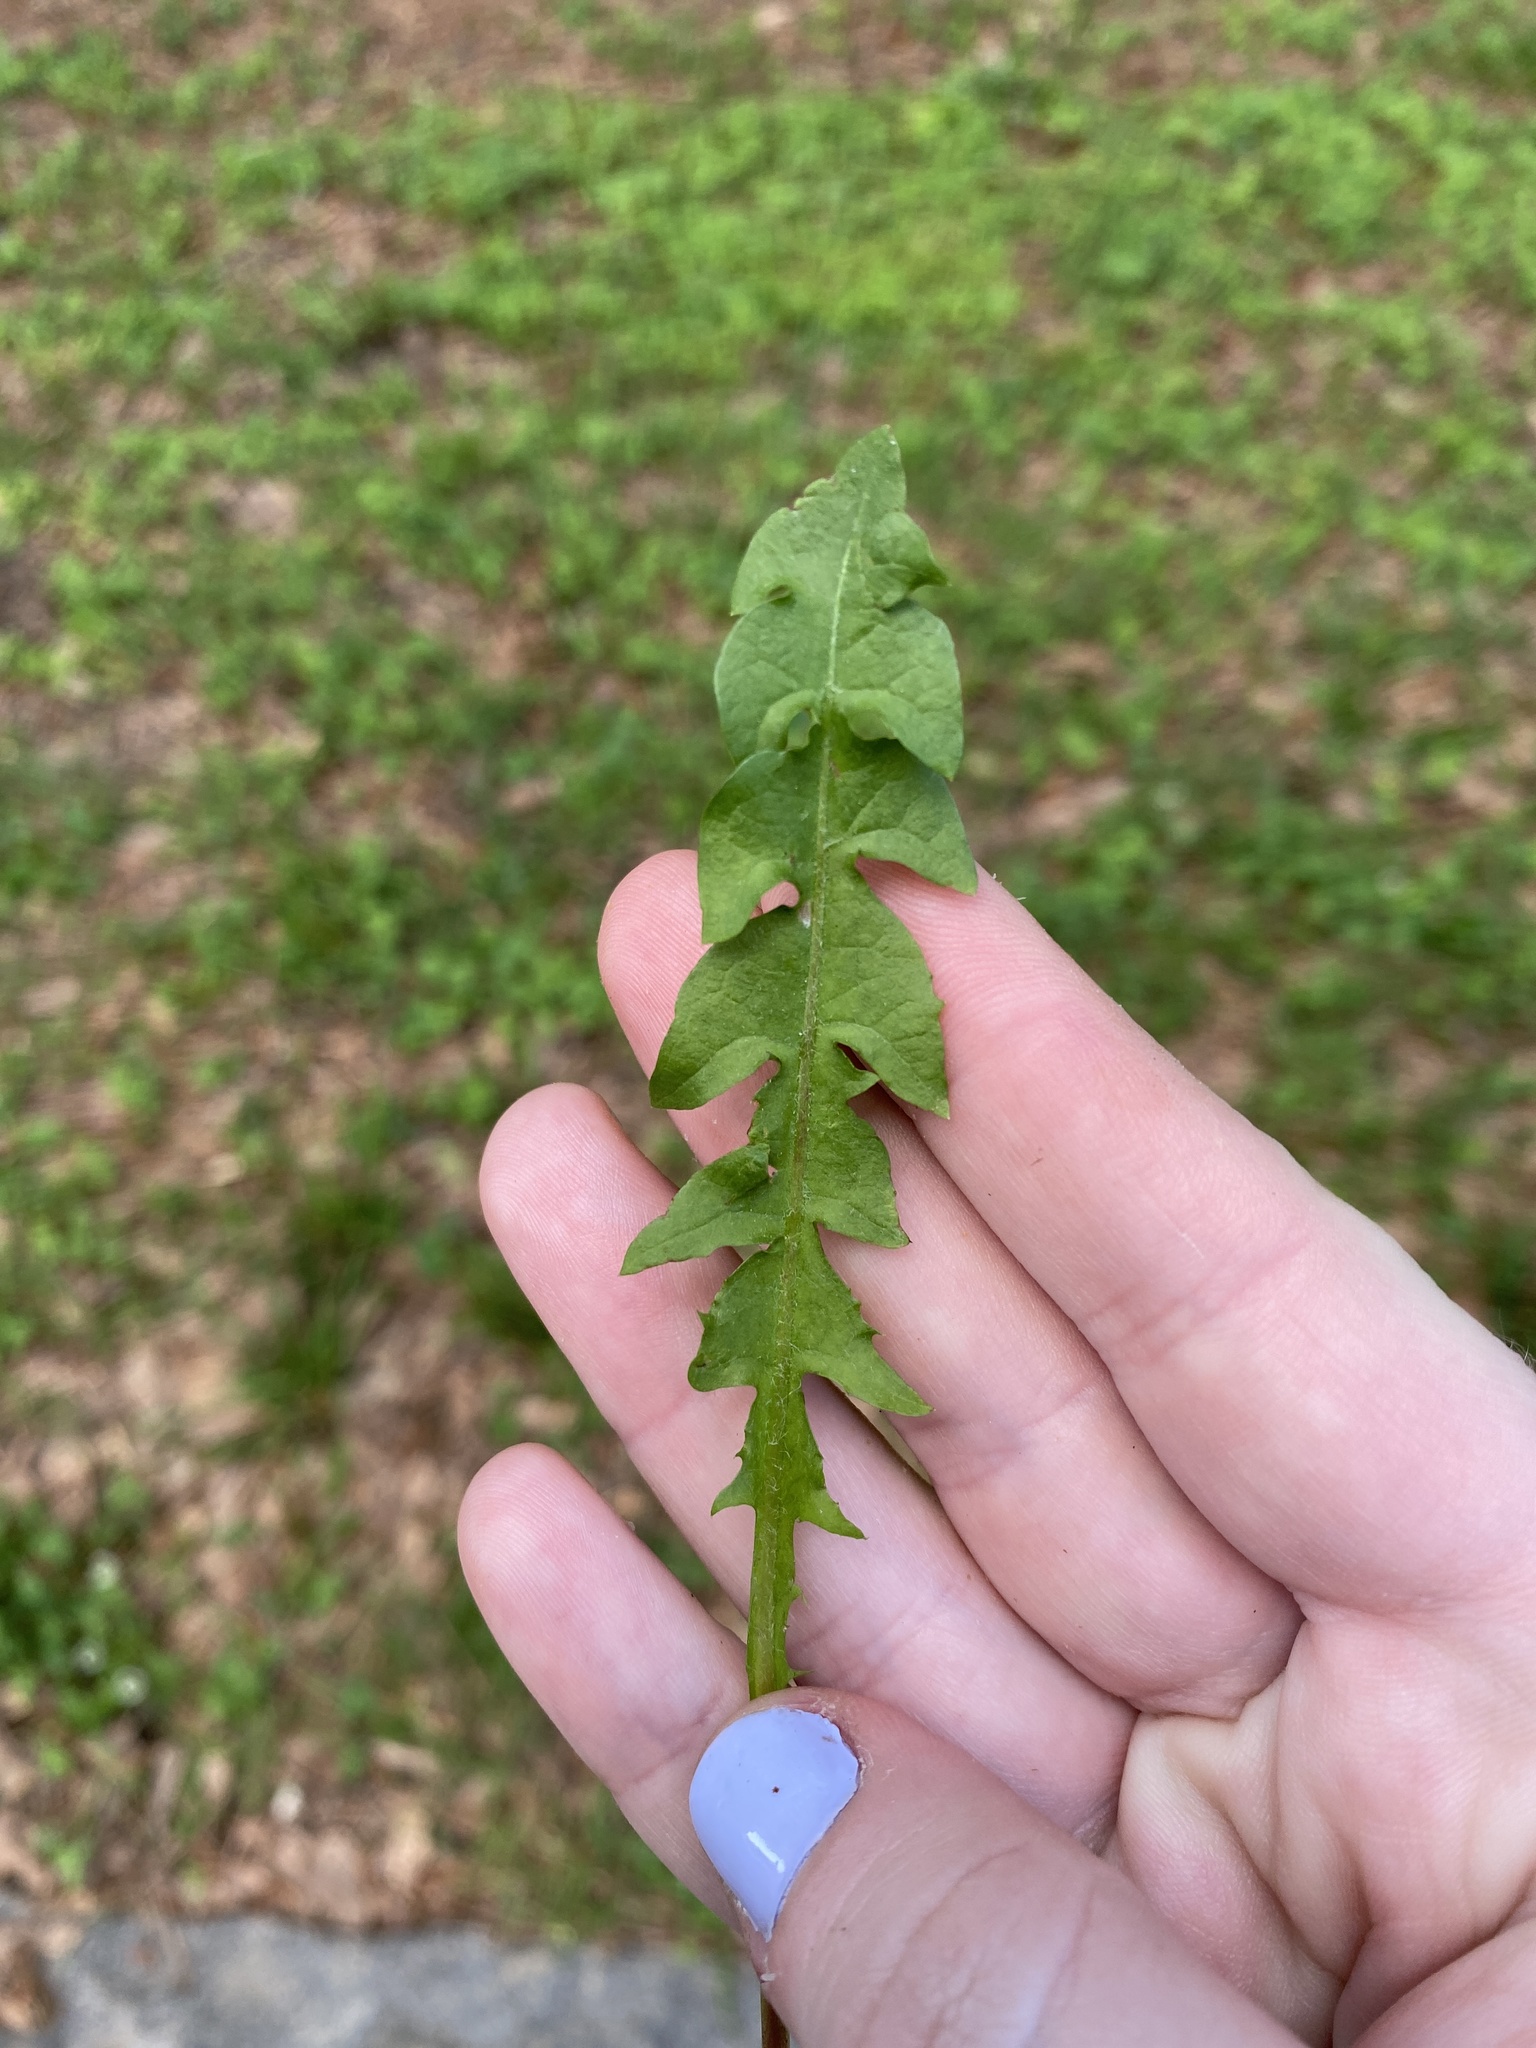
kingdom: Plantae
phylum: Tracheophyta
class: Magnoliopsida
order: Asterales
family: Asteraceae
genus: Taraxacum
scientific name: Taraxacum erythrospermum
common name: Rock dandelion
